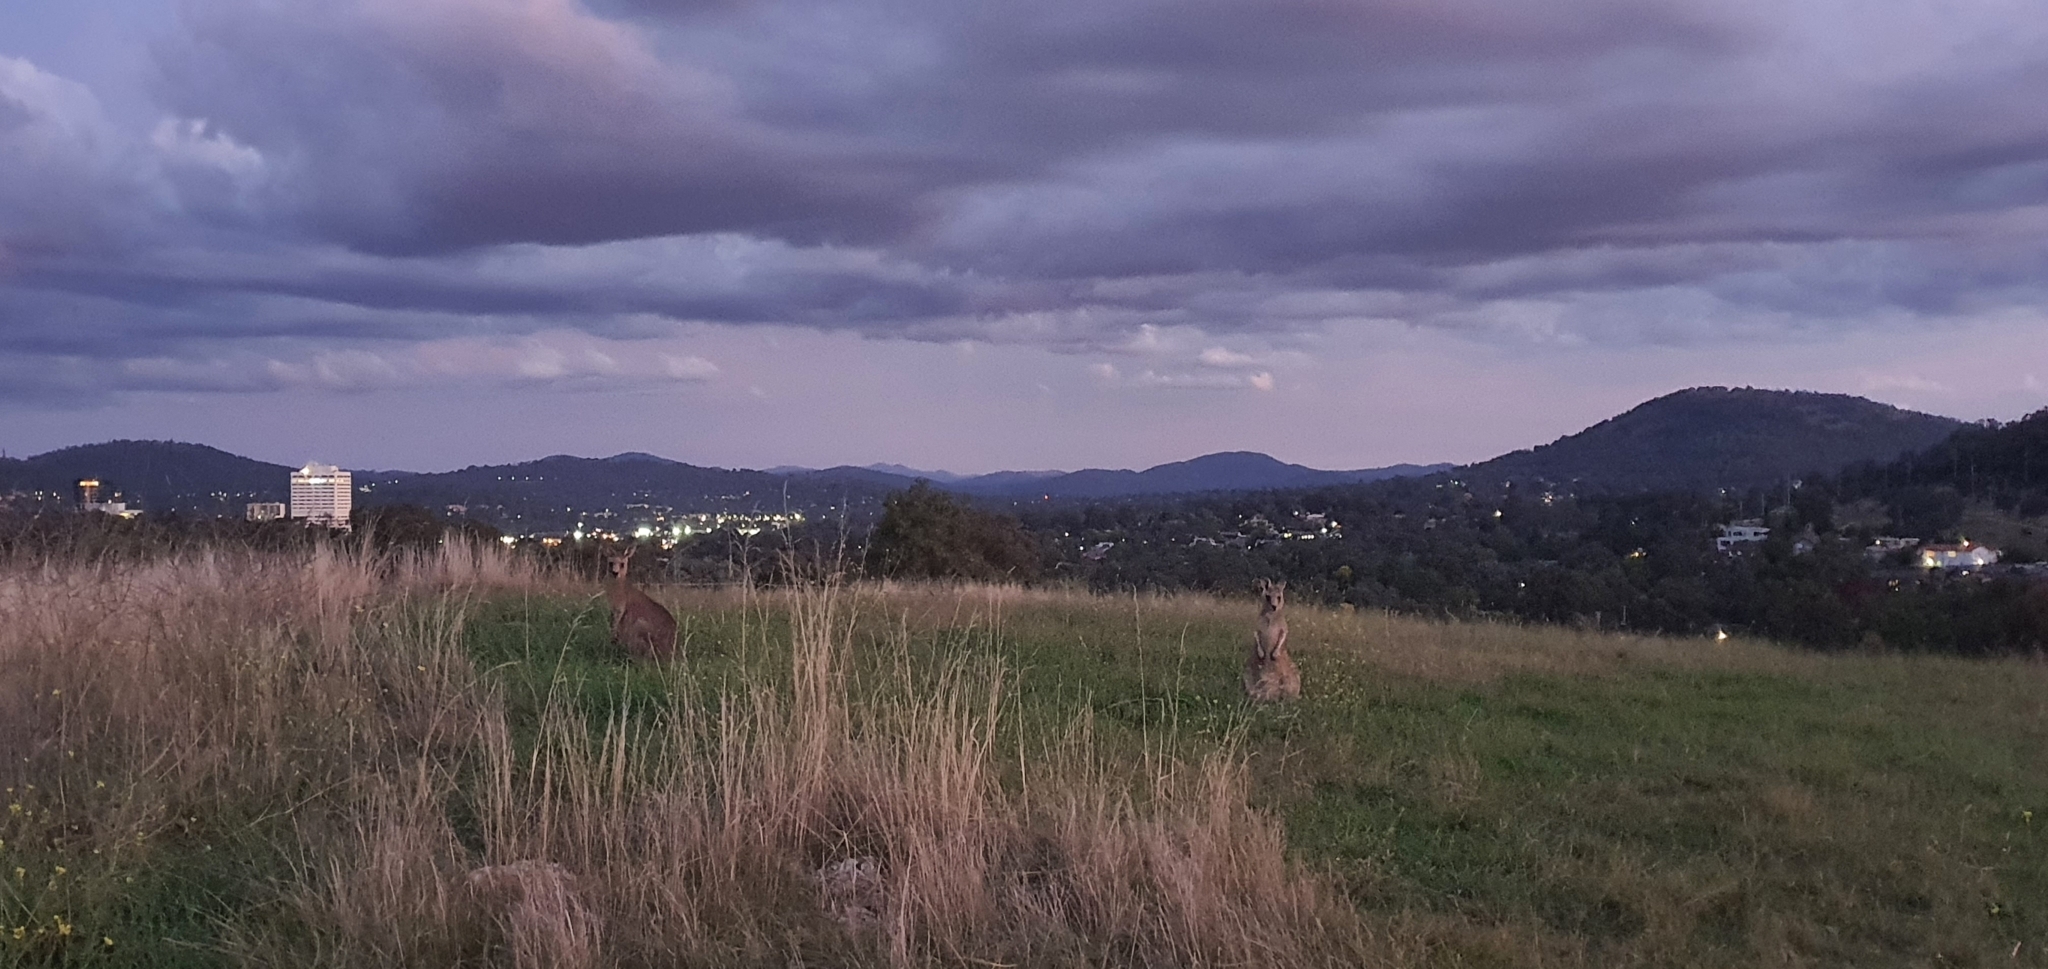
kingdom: Animalia
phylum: Chordata
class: Mammalia
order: Diprotodontia
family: Macropodidae
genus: Macropus
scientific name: Macropus giganteus
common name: Eastern grey kangaroo
